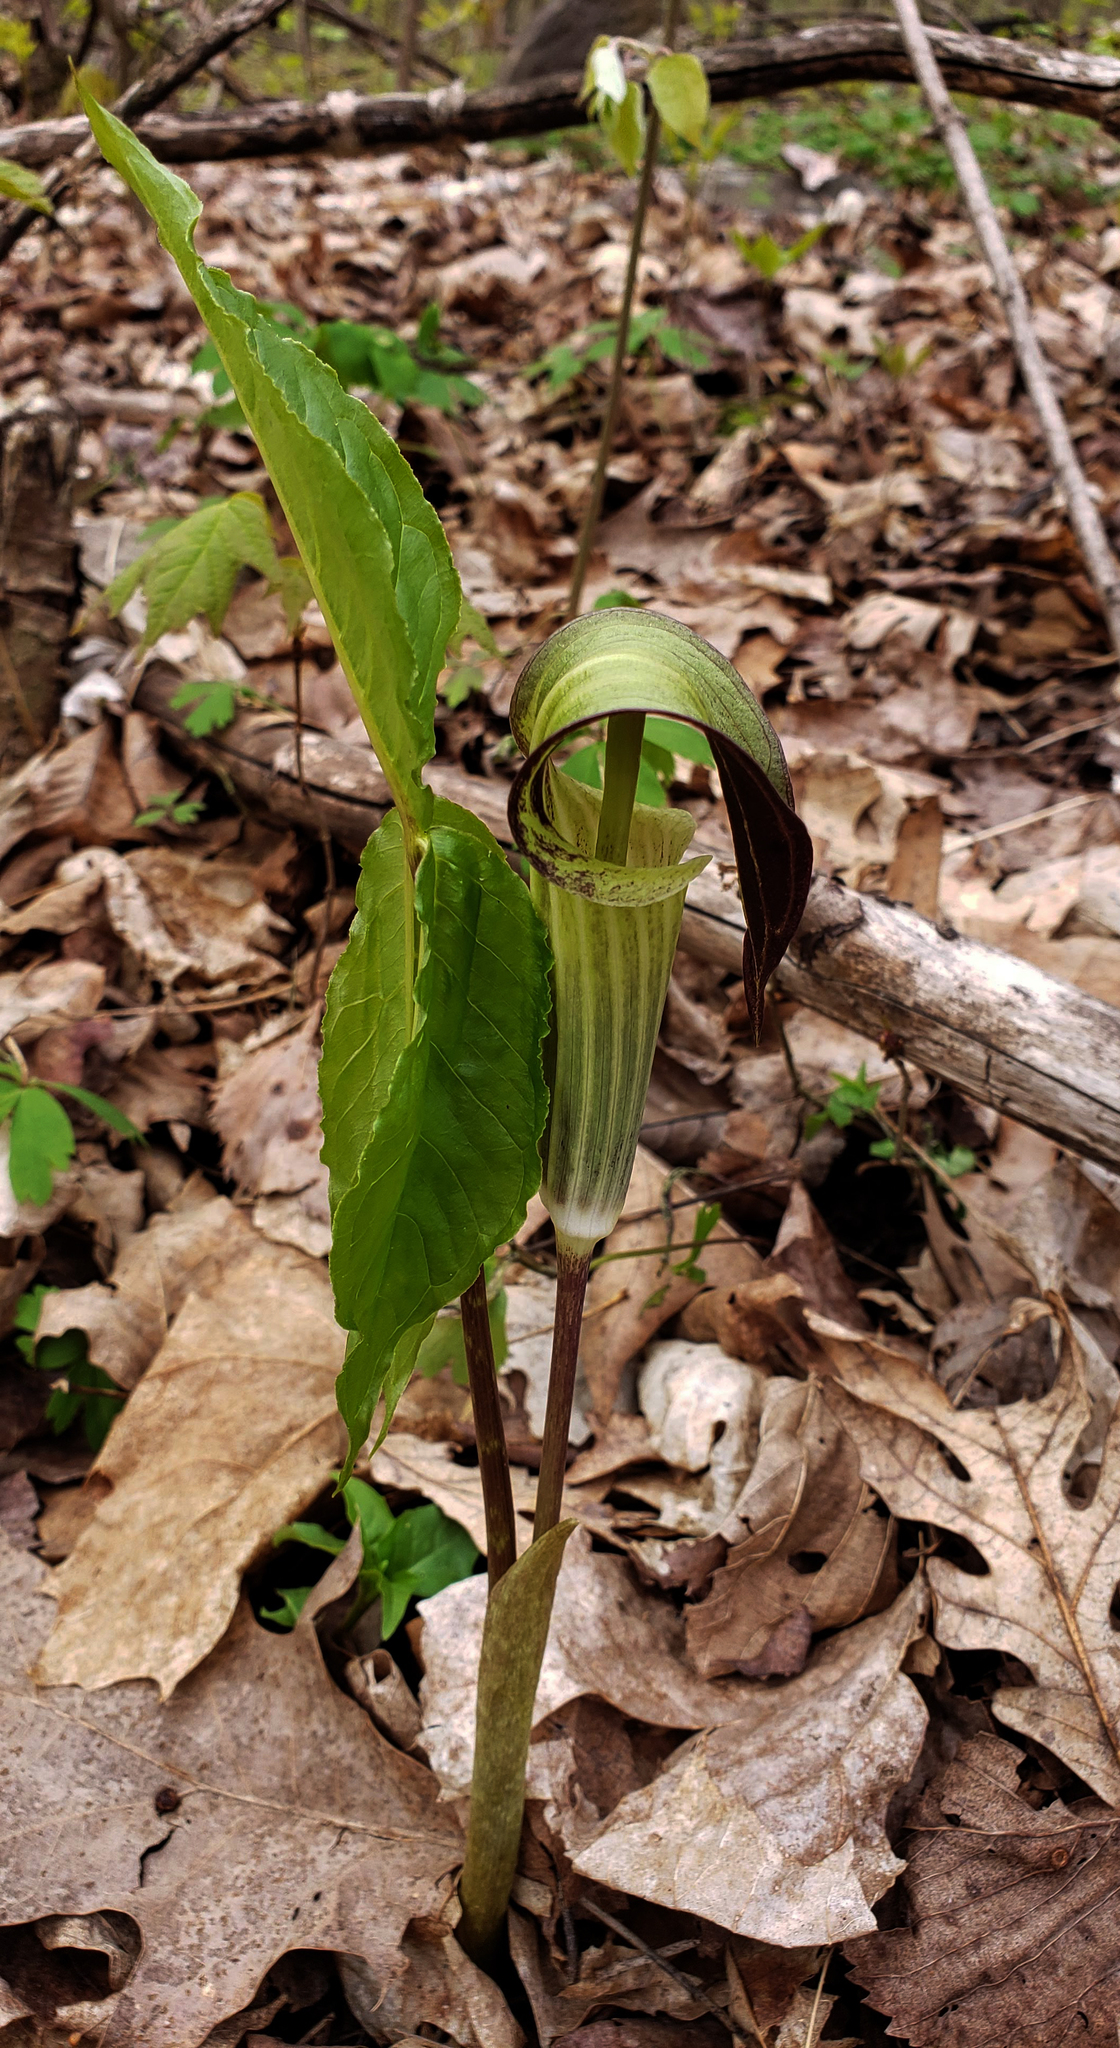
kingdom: Plantae
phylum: Tracheophyta
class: Liliopsida
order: Alismatales
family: Araceae
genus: Arisaema
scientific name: Arisaema triphyllum
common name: Jack-in-the-pulpit
